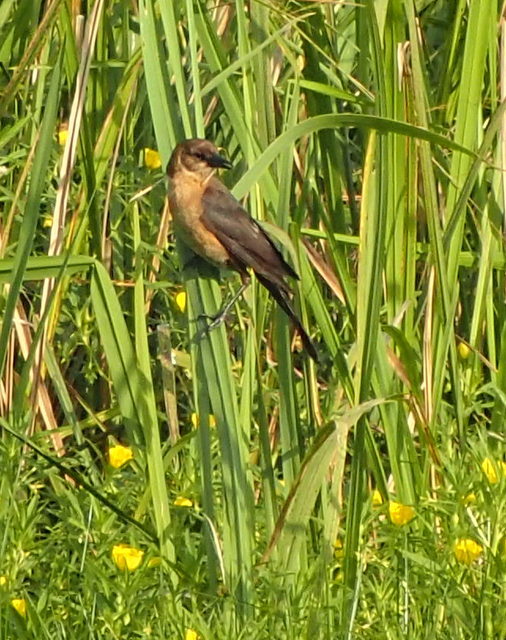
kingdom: Animalia
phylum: Chordata
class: Aves
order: Passeriformes
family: Icteridae
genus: Quiscalus
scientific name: Quiscalus major
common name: Boat-tailed grackle
